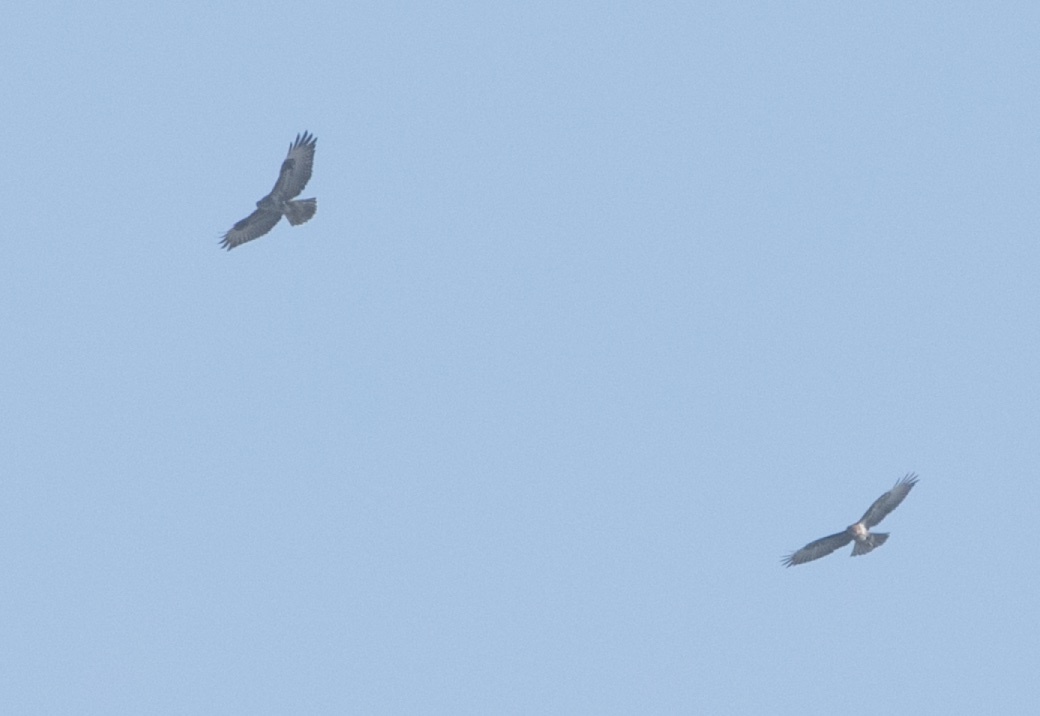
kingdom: Animalia
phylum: Chordata
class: Aves
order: Accipitriformes
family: Accipitridae
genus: Buteo
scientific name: Buteo buteo
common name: Common buzzard
